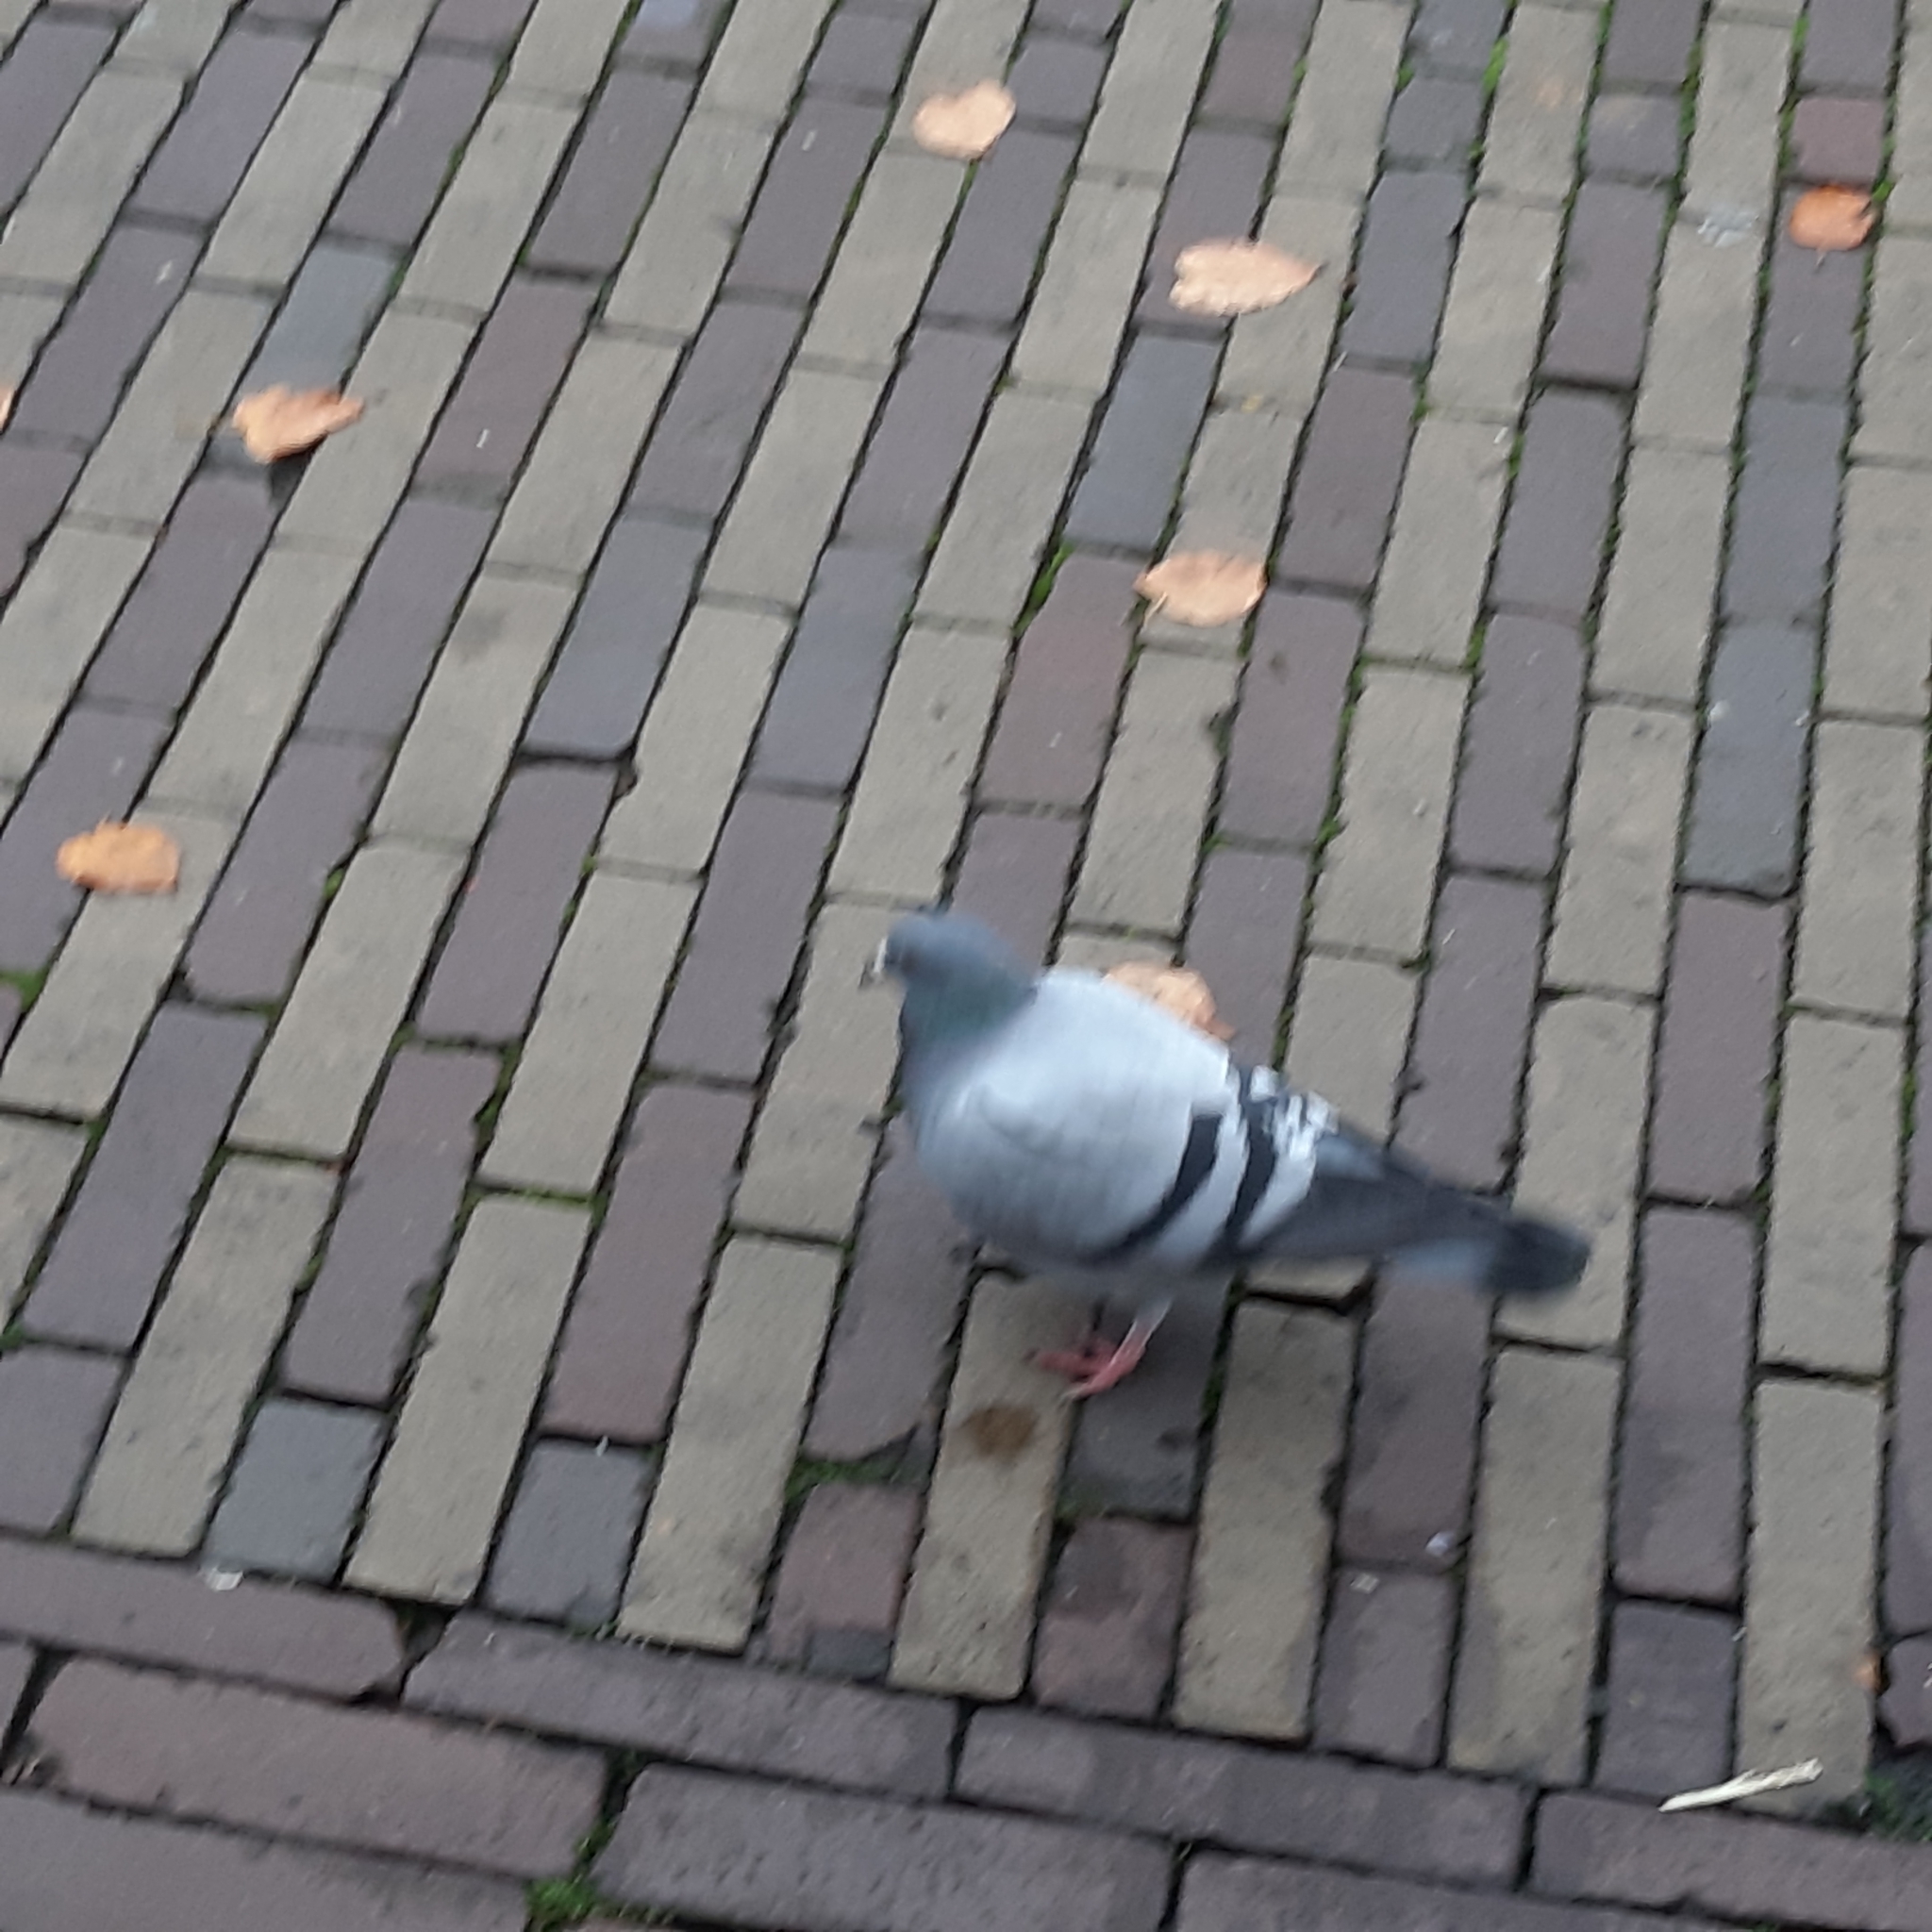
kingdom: Animalia
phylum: Chordata
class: Aves
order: Columbiformes
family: Columbidae
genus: Columba
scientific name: Columba livia
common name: Rock pigeon
